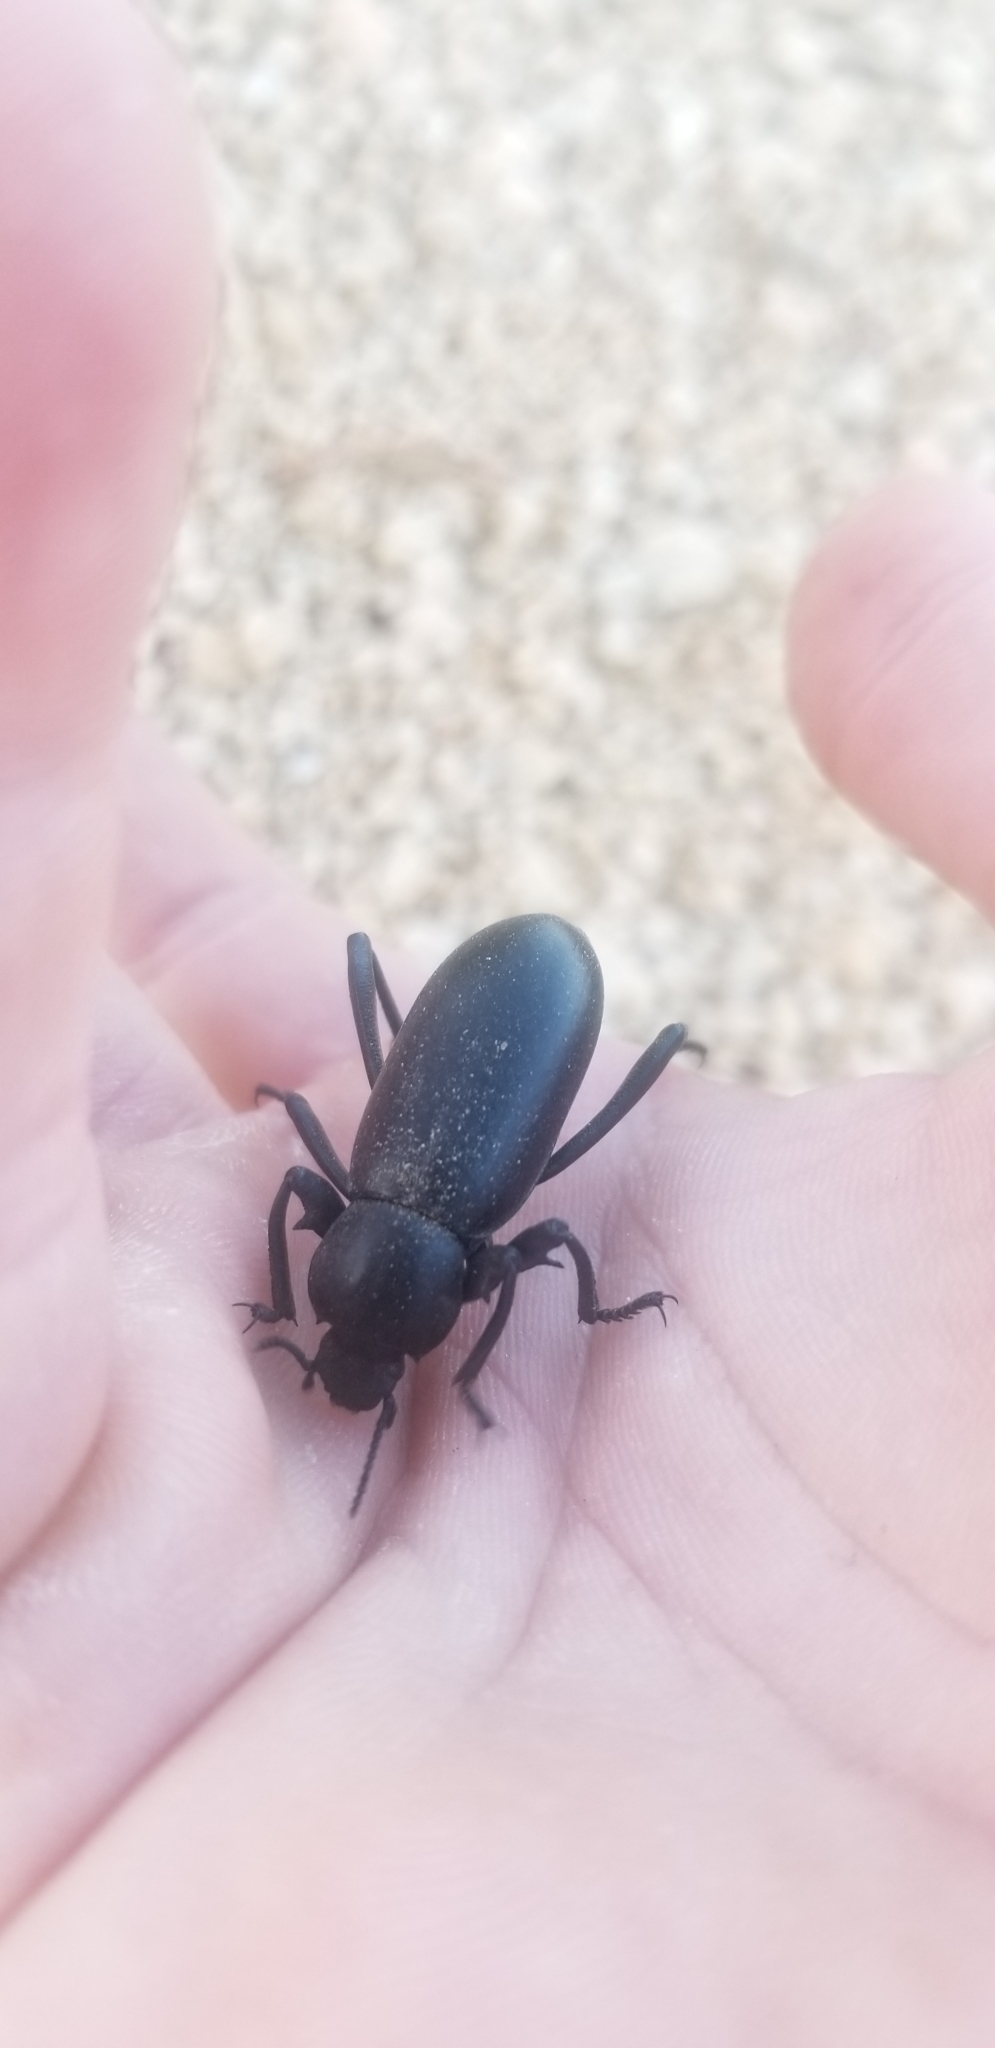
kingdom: Animalia
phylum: Arthropoda
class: Insecta
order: Coleoptera
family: Tenebrionidae
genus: Eleodes
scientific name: Eleodes armata
